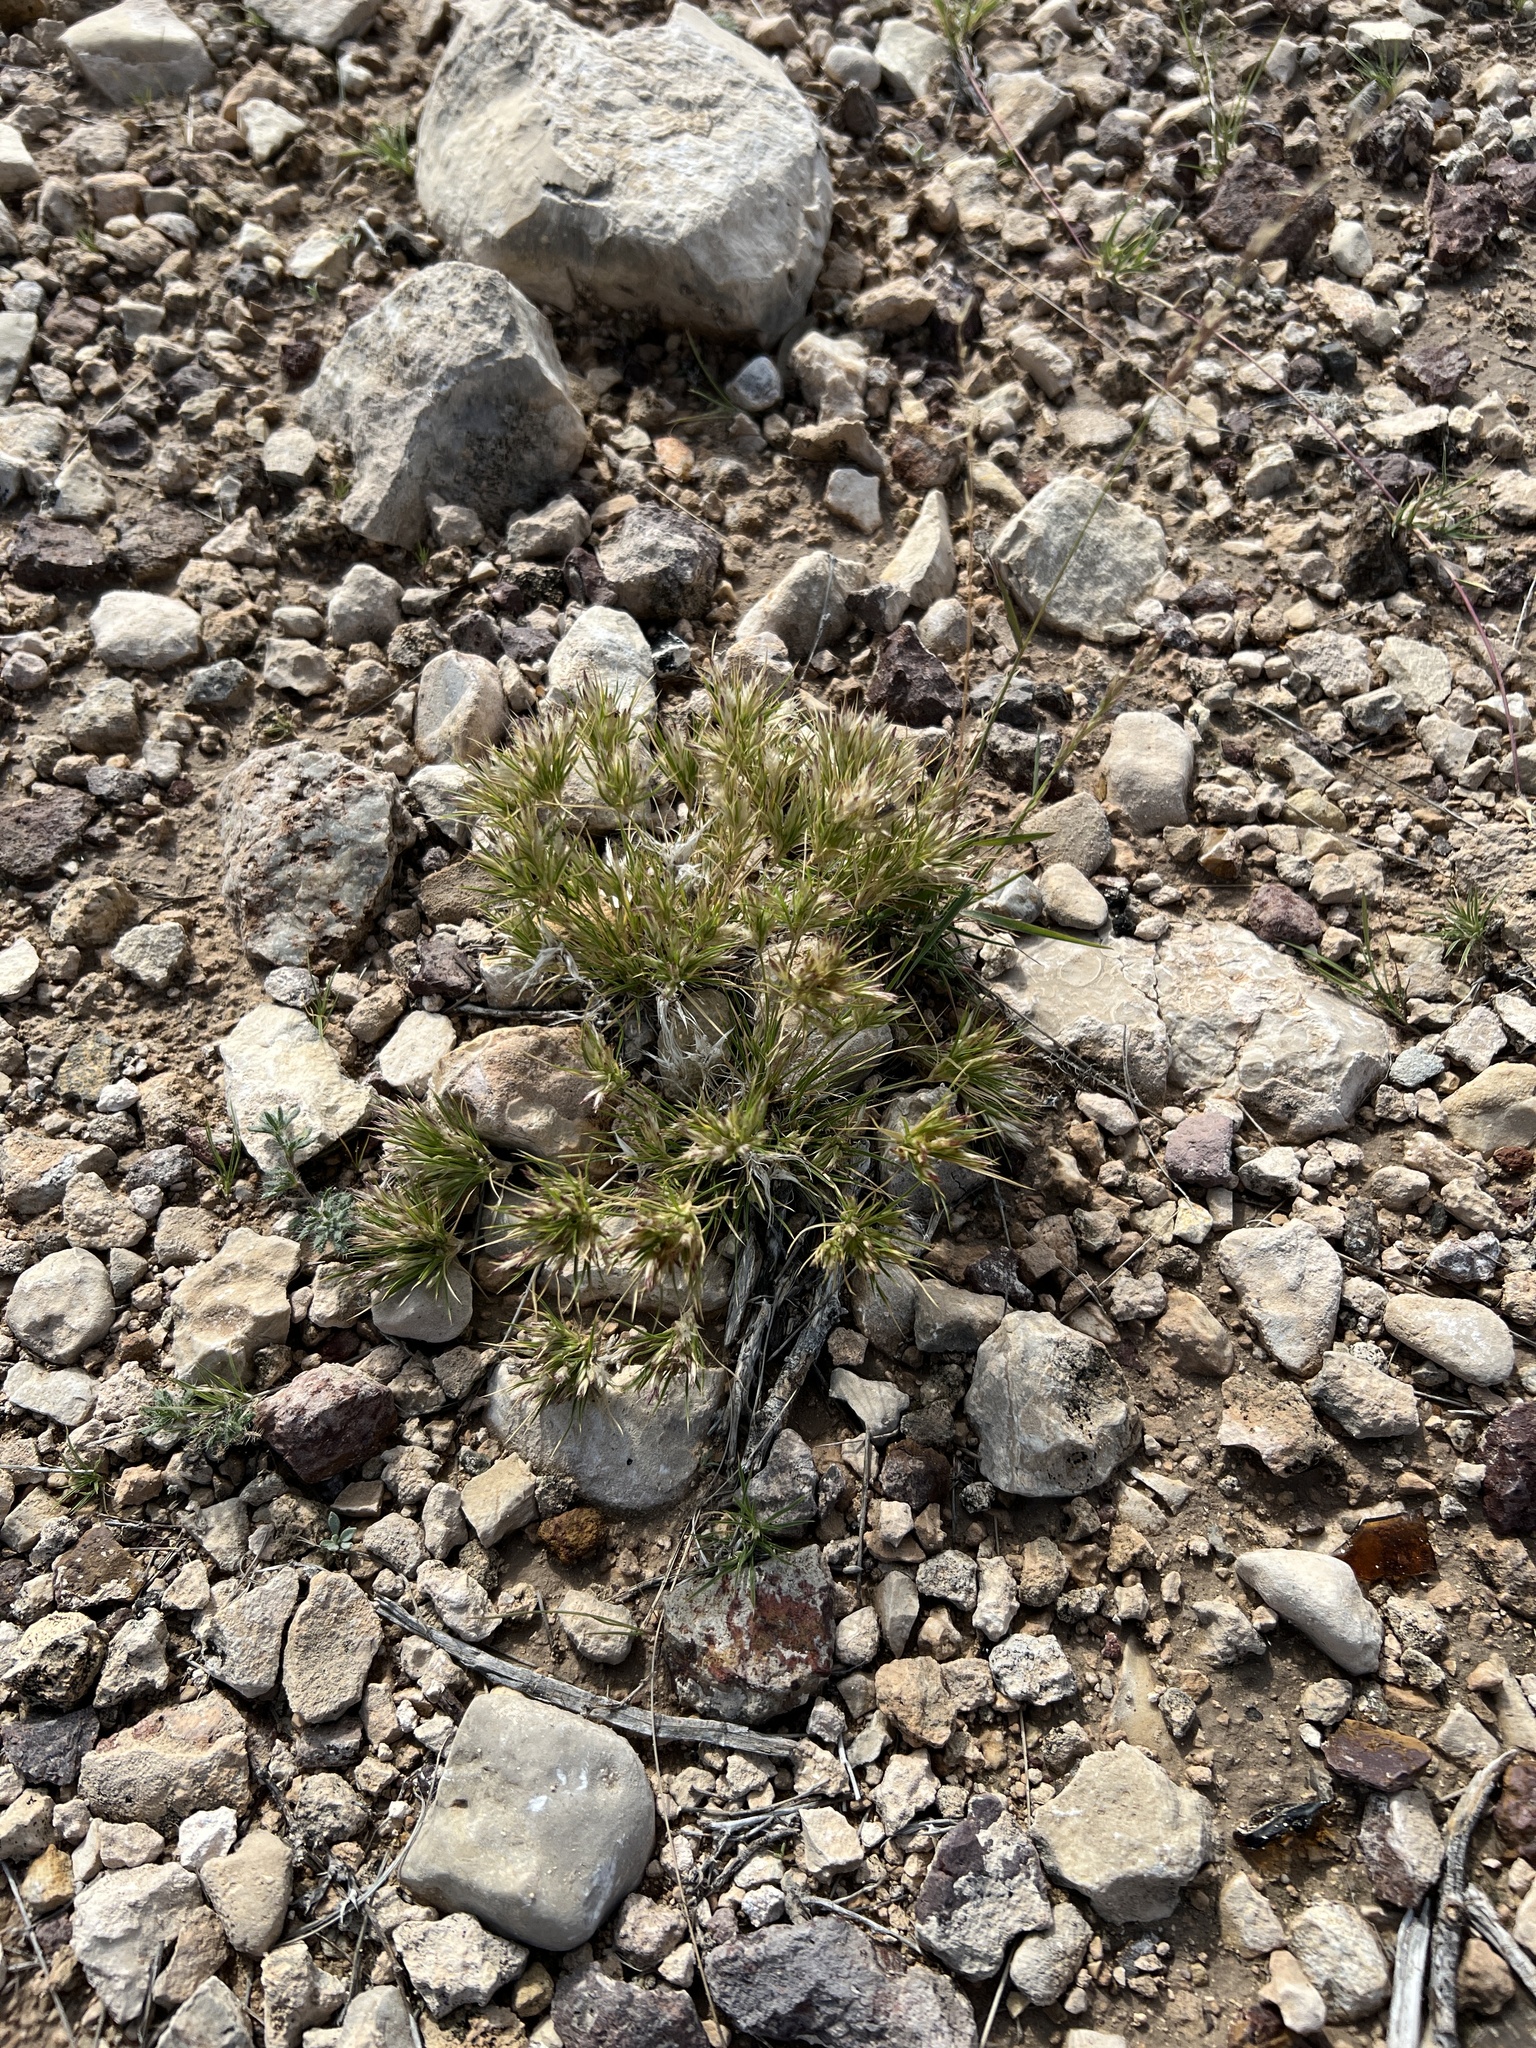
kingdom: Plantae
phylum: Tracheophyta
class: Liliopsida
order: Poales
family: Poaceae
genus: Dasyochloa
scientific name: Dasyochloa pulchella
